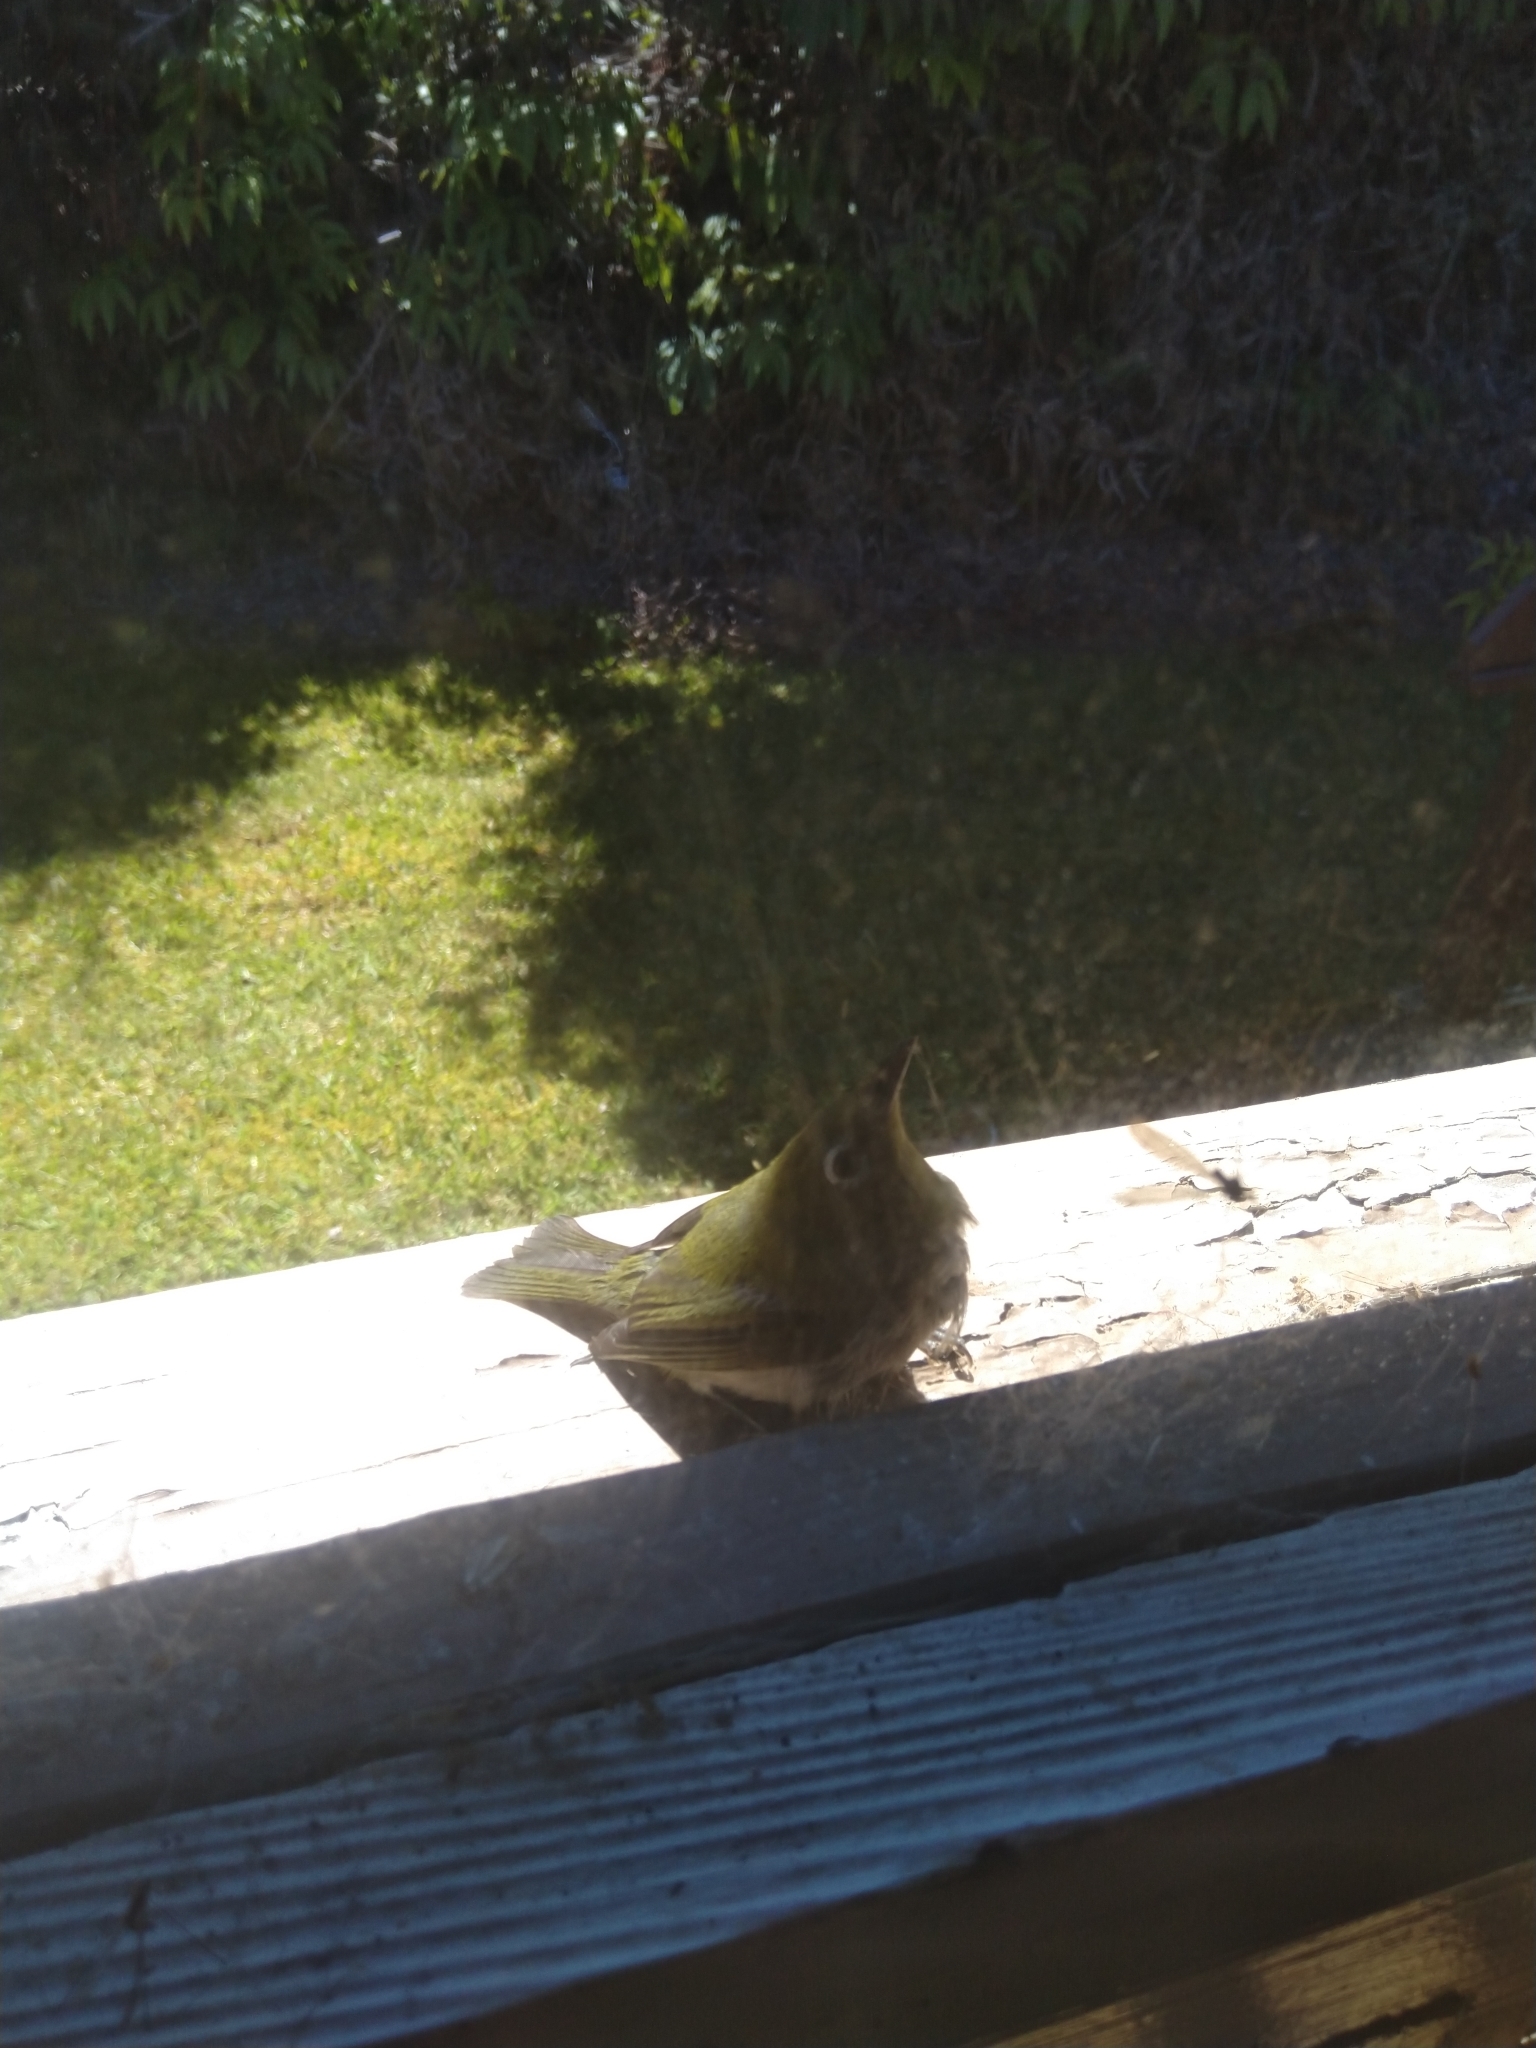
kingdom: Animalia
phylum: Chordata
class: Aves
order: Passeriformes
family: Zosteropidae
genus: Zosterops
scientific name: Zosterops japonicus
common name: Japanese white-eye
